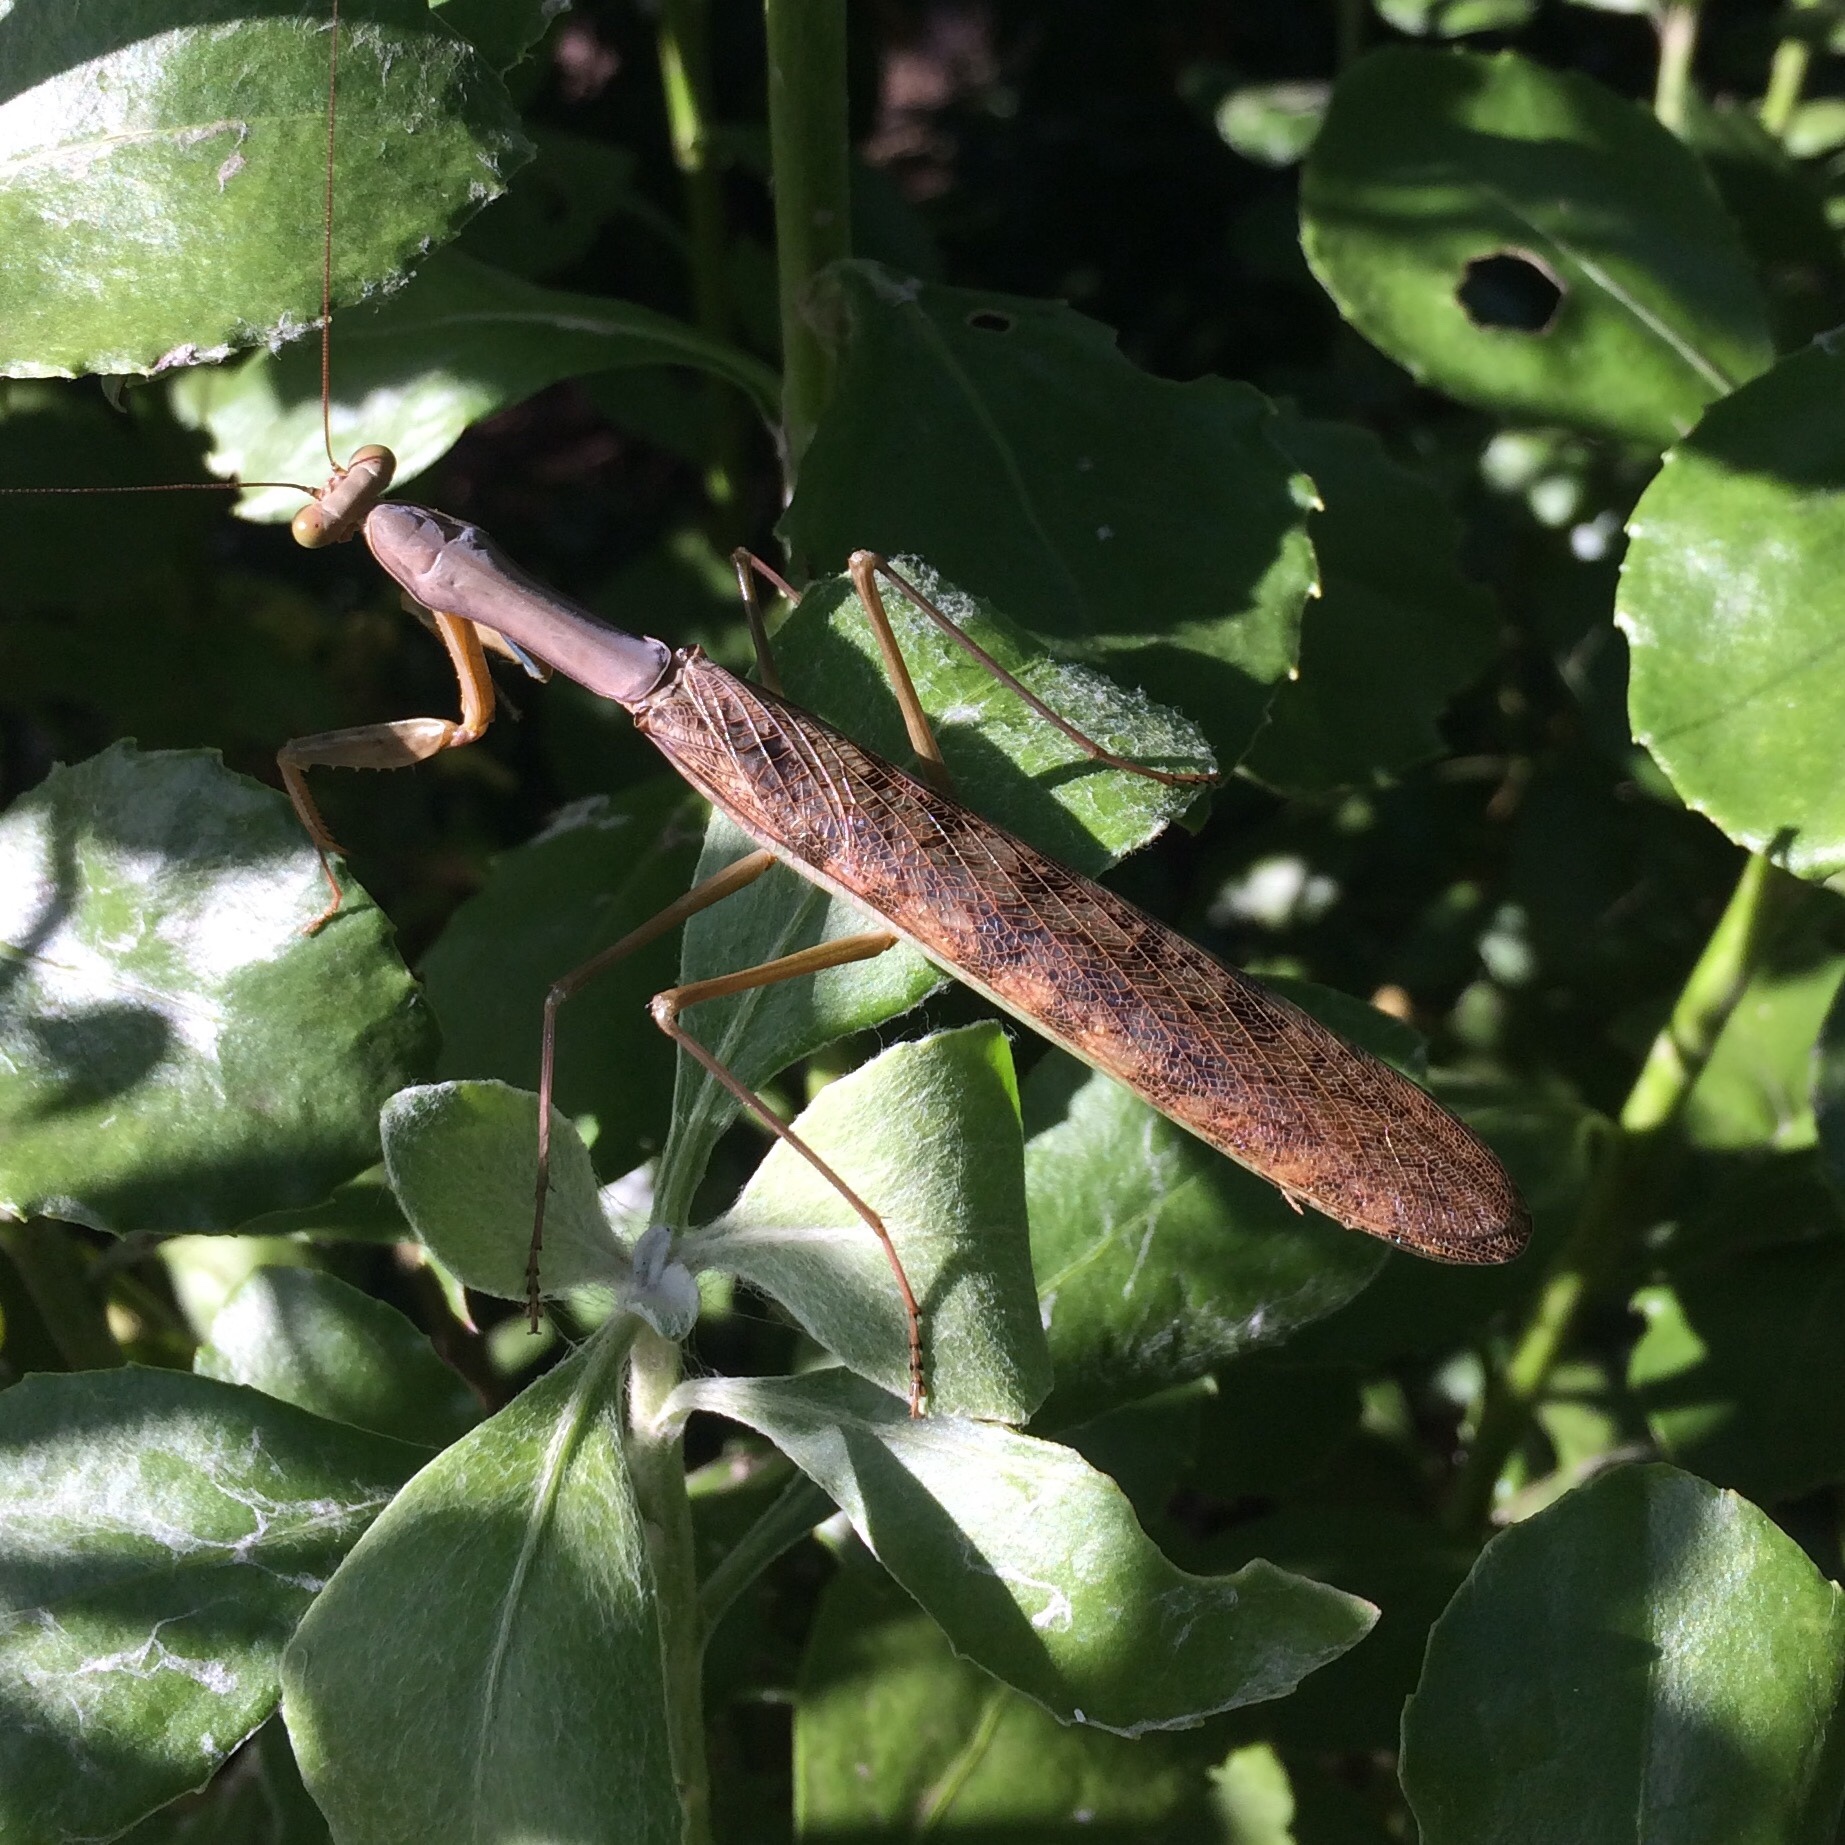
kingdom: Animalia
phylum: Arthropoda
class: Insecta
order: Mantodea
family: Mantidae
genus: Polyspilota
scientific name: Polyspilota aeruginosa
